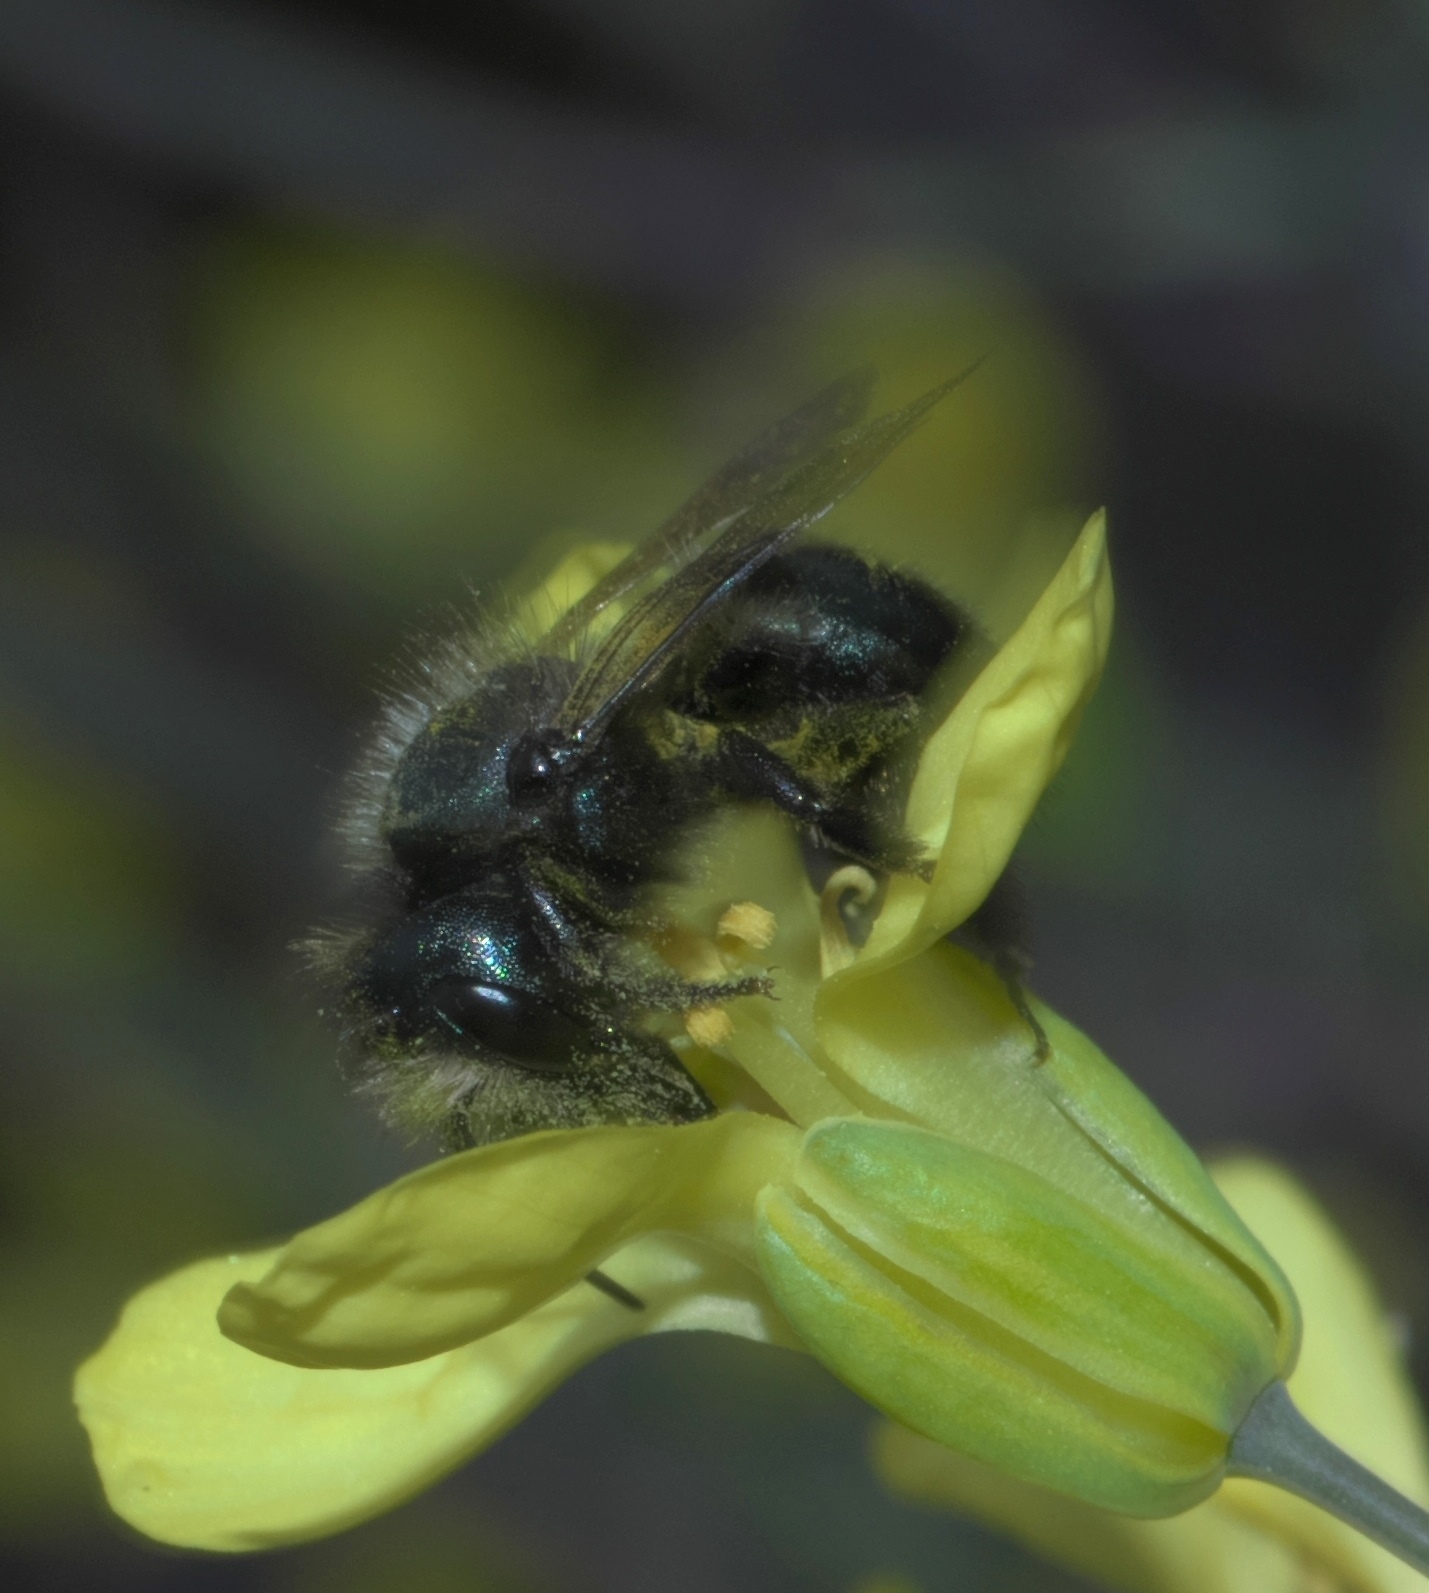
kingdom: Animalia
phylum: Arthropoda
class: Insecta
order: Hymenoptera
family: Megachilidae
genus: Osmia
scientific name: Osmia lignaria
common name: Blue orchard bee
